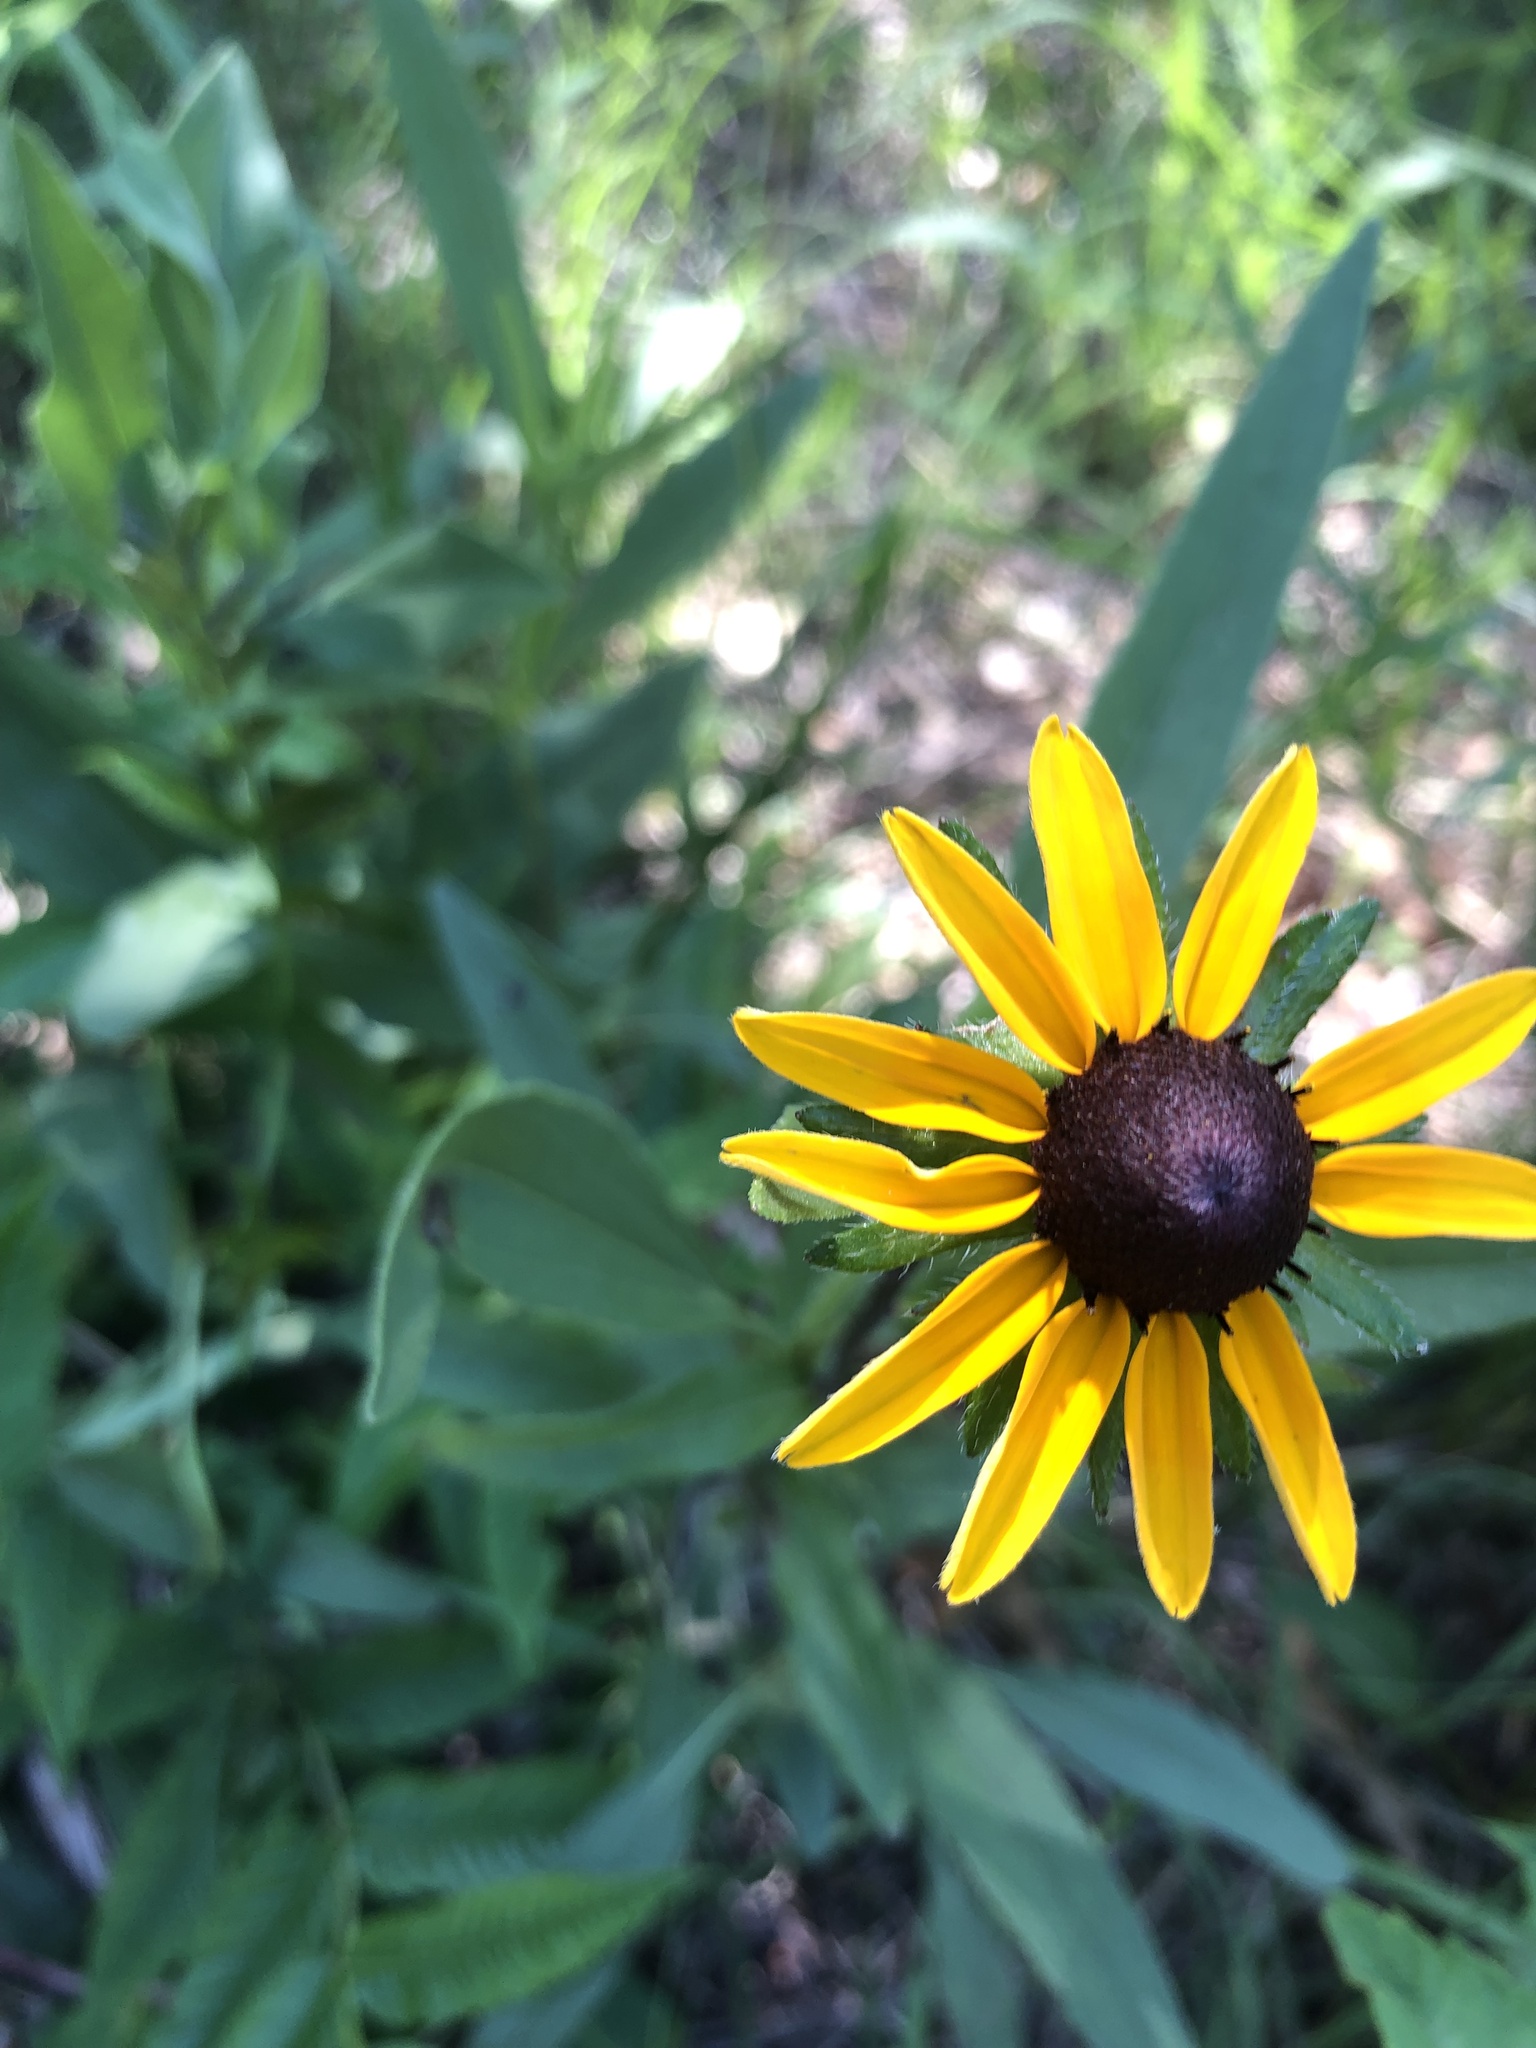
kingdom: Plantae
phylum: Tracheophyta
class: Magnoliopsida
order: Asterales
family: Asteraceae
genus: Rudbeckia
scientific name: Rudbeckia hirta
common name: Black-eyed-susan
